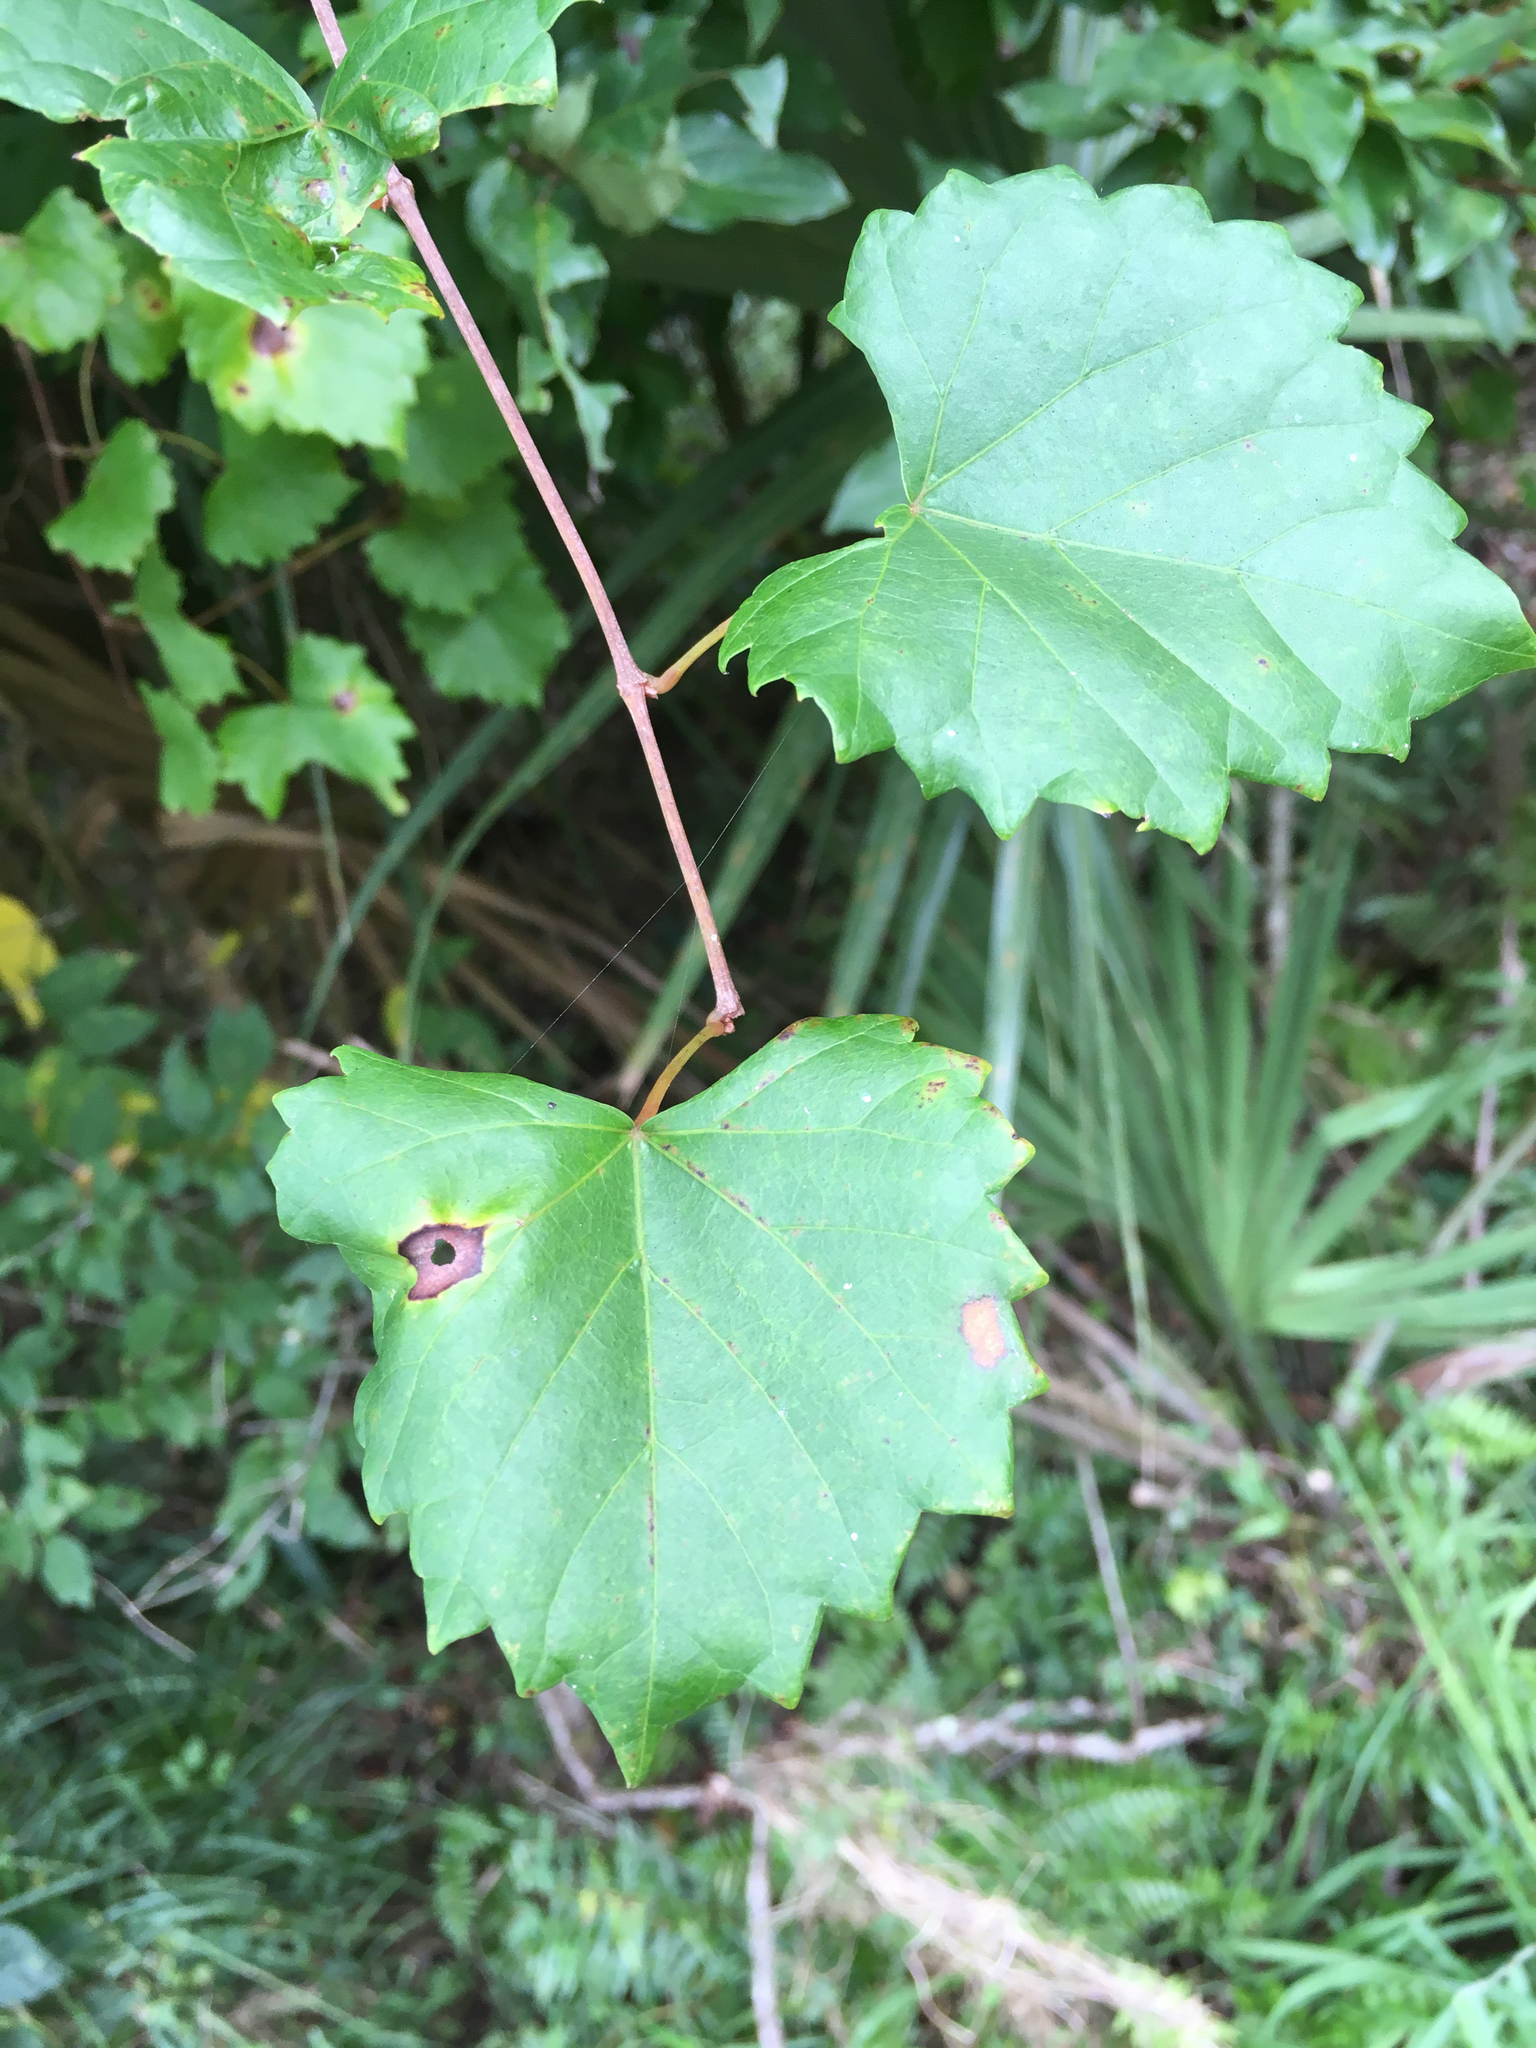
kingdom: Plantae
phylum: Tracheophyta
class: Magnoliopsida
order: Vitales
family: Vitaceae
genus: Vitis
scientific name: Vitis rotundifolia
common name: Muscadine grape
